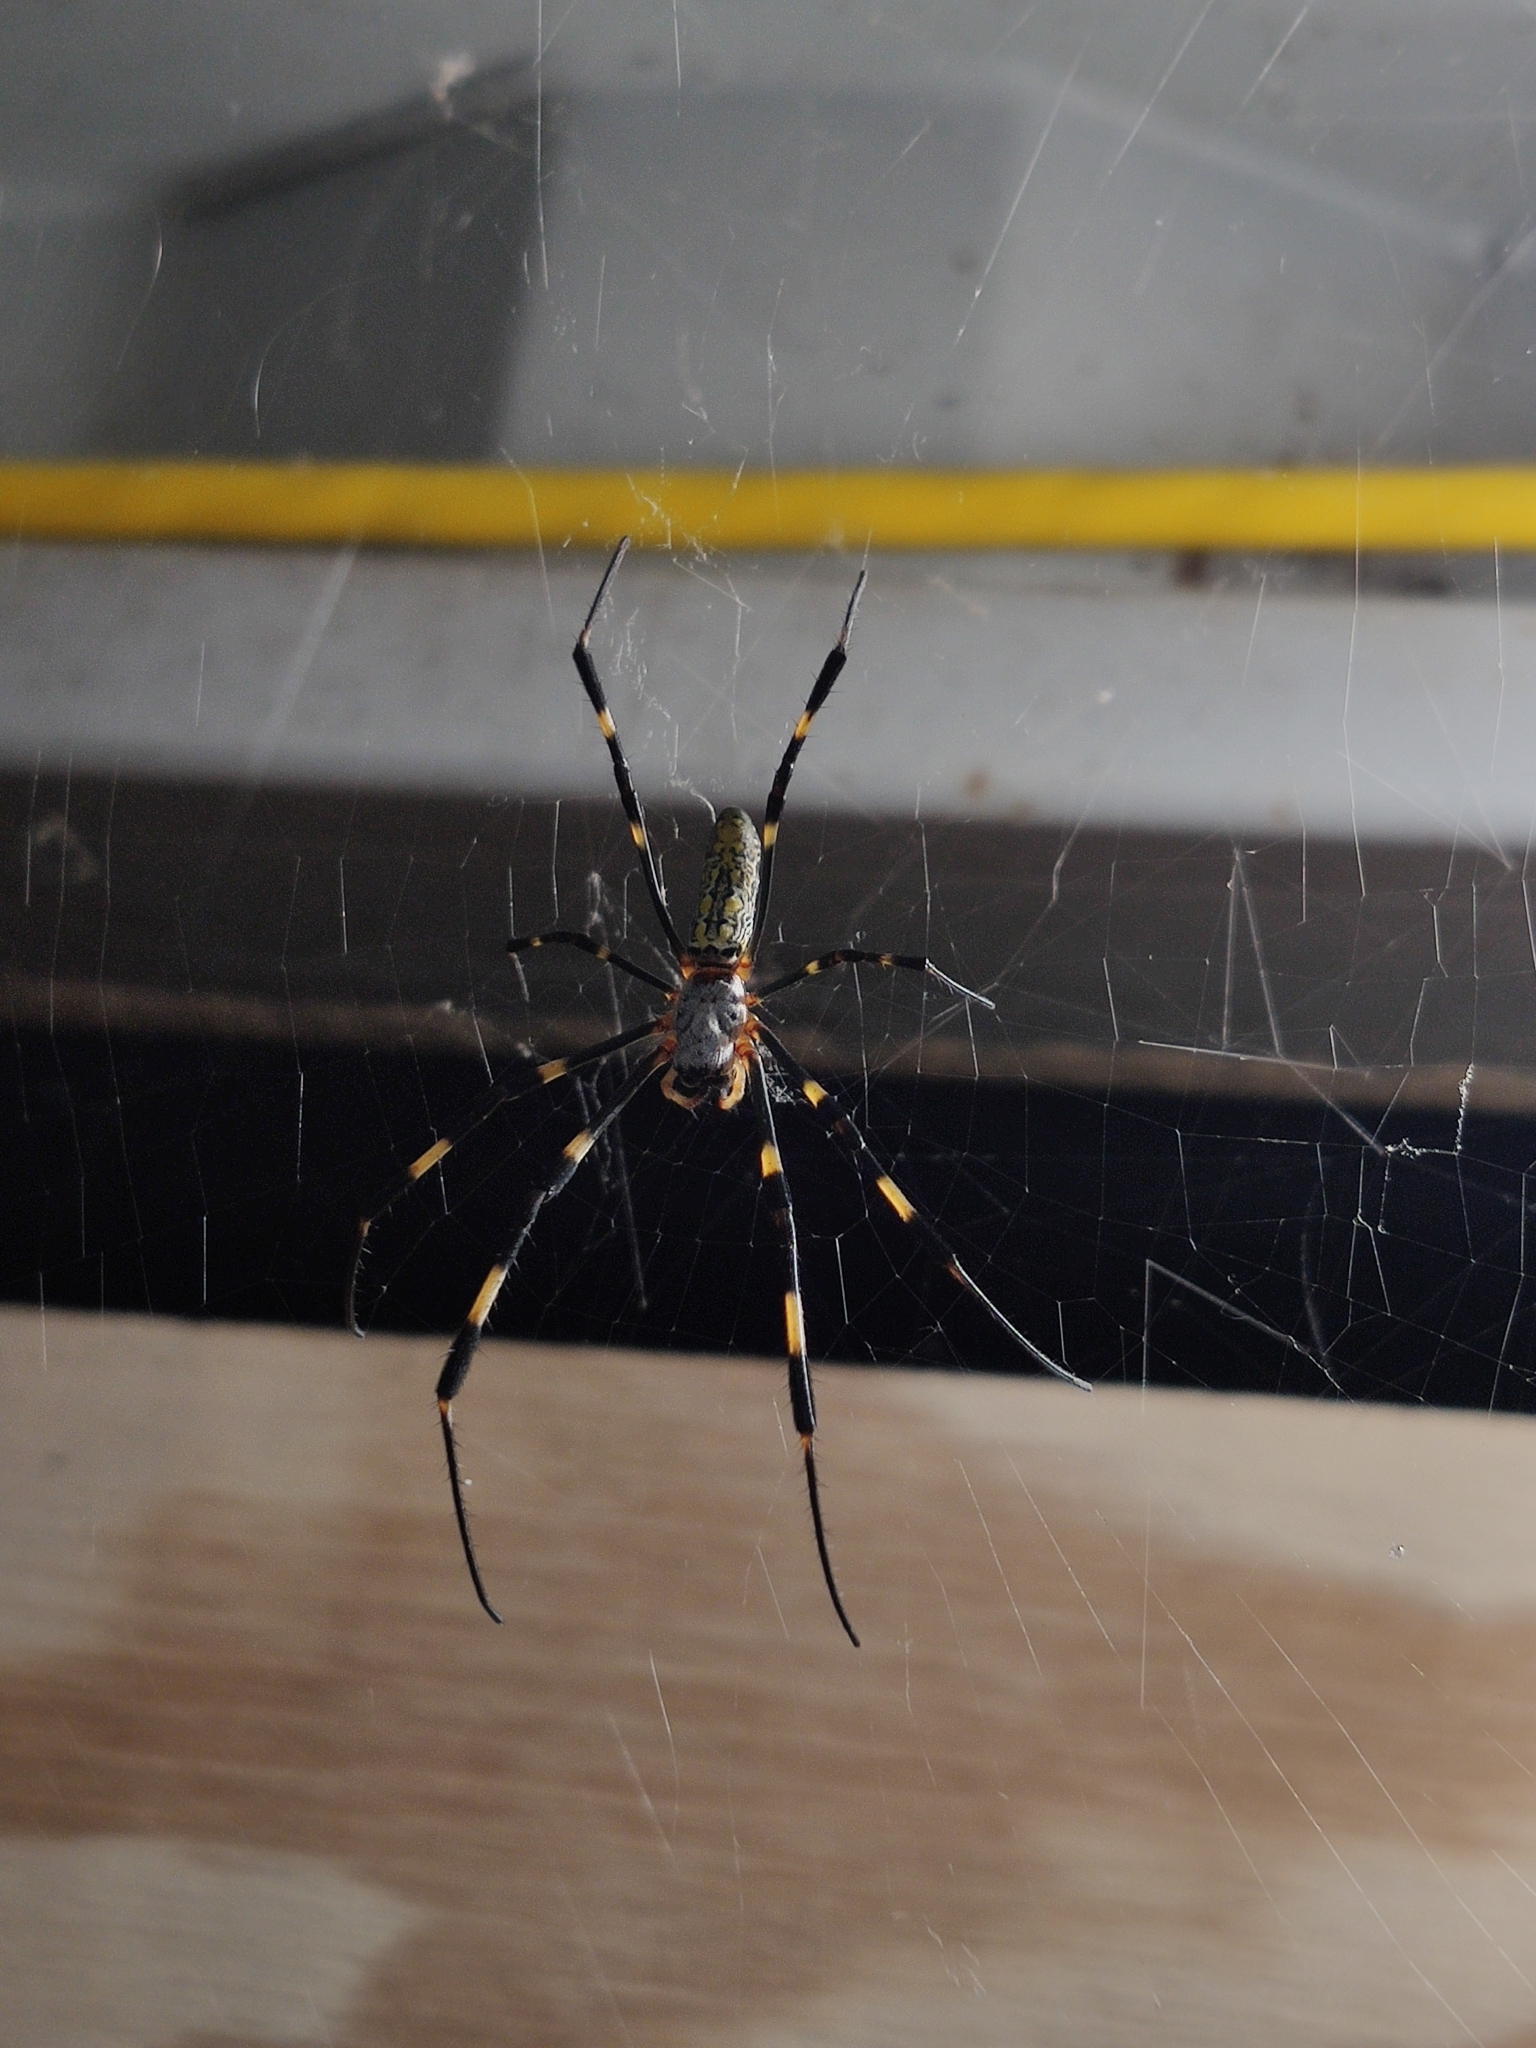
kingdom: Animalia
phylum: Arthropoda
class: Arachnida
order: Araneae
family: Araneidae
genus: Trichonephila
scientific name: Trichonephila clavata
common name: Jorō spider
